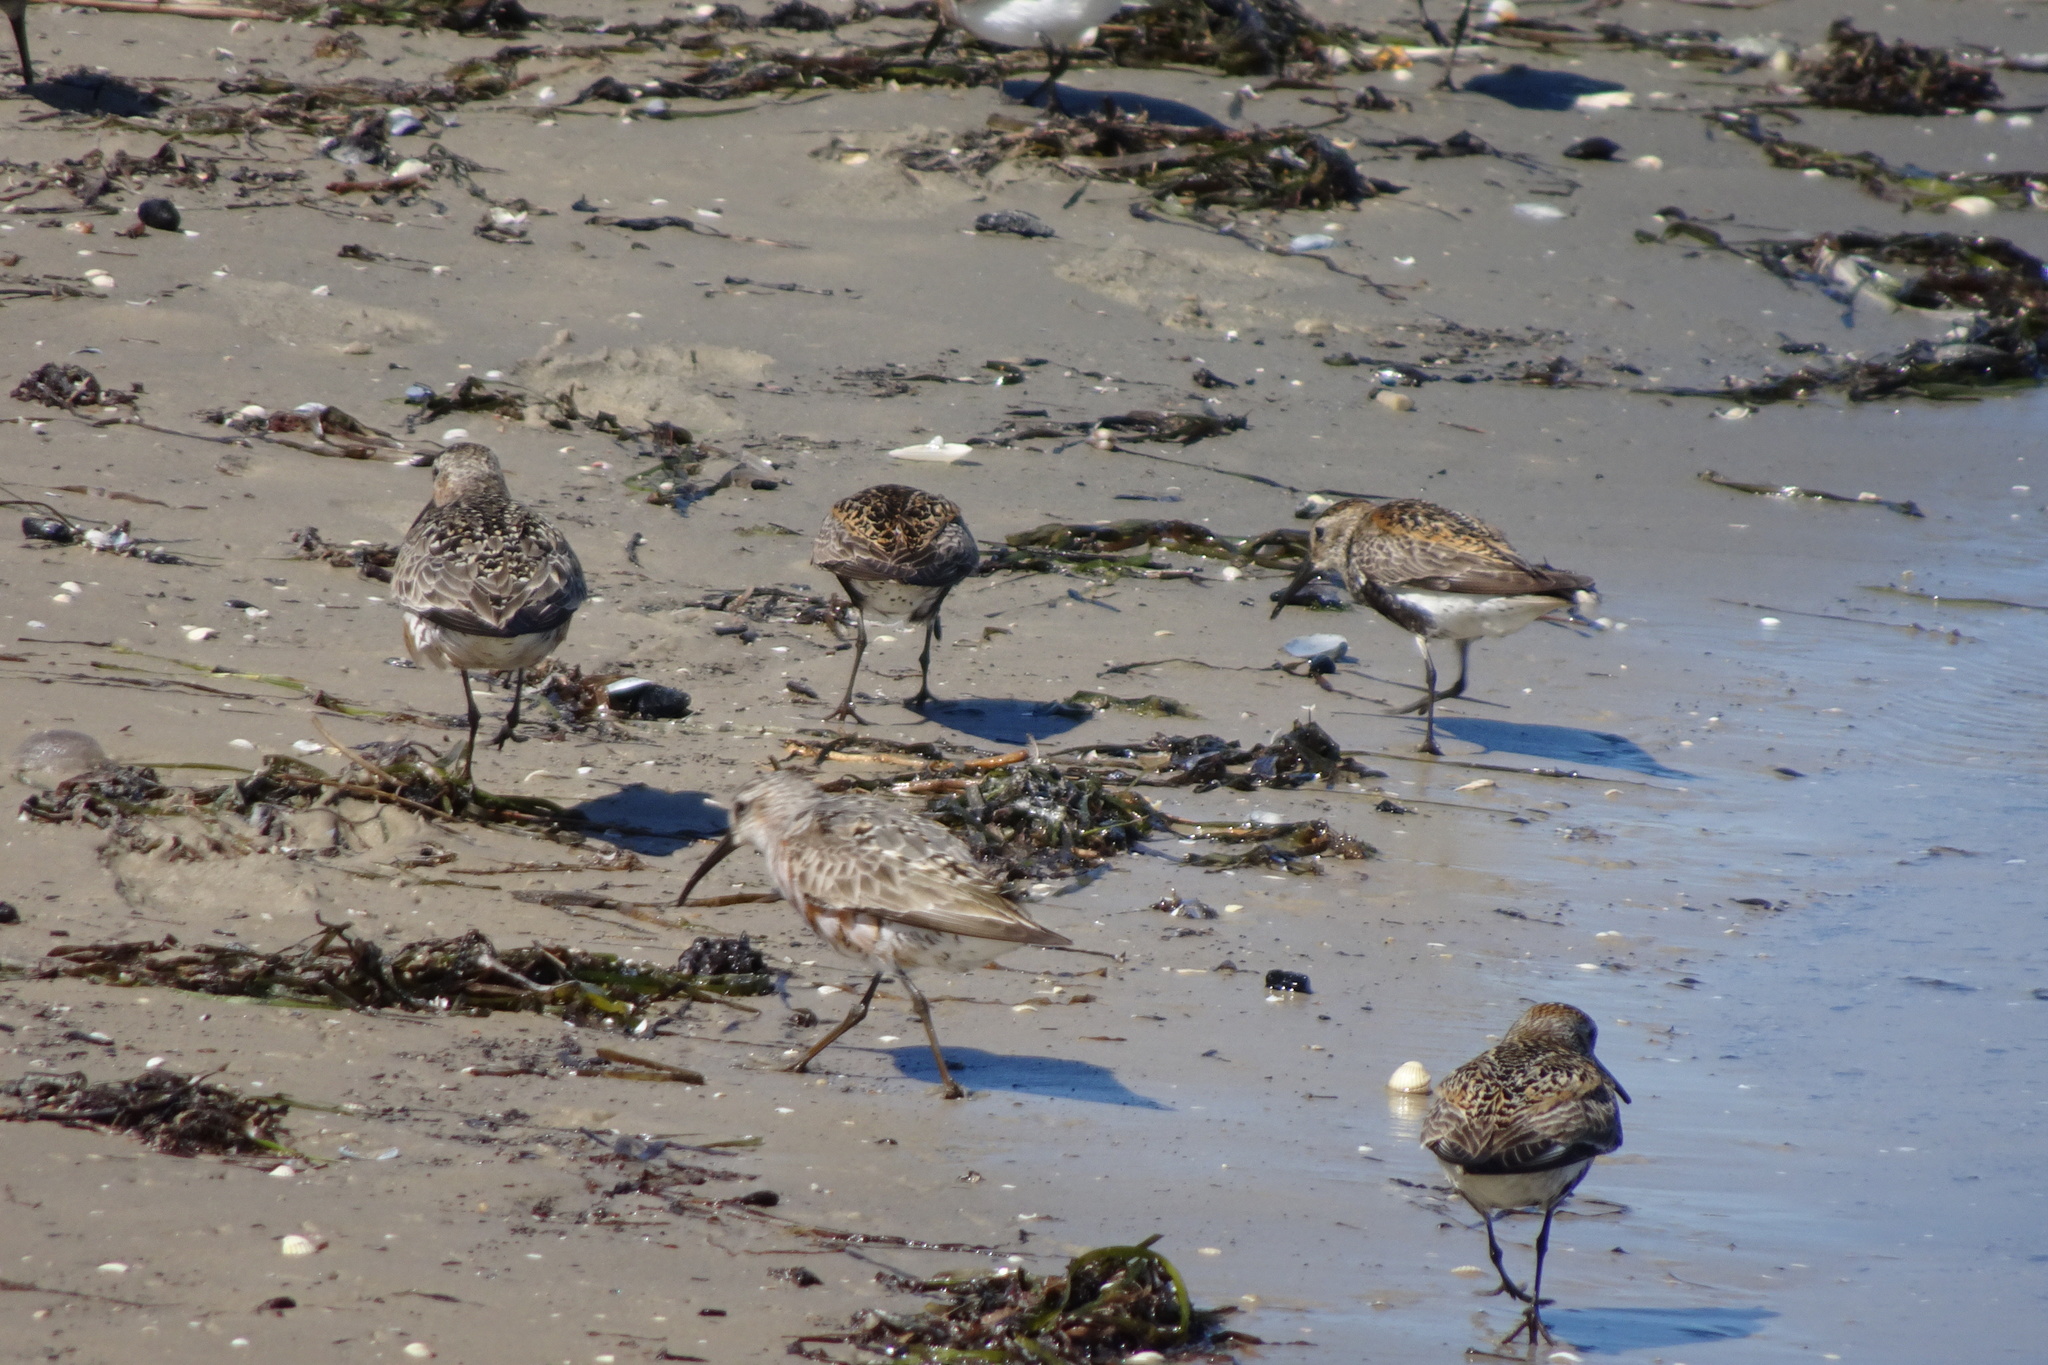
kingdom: Animalia
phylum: Chordata
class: Aves
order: Charadriiformes
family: Scolopacidae
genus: Calidris
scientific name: Calidris alpina
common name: Dunlin
